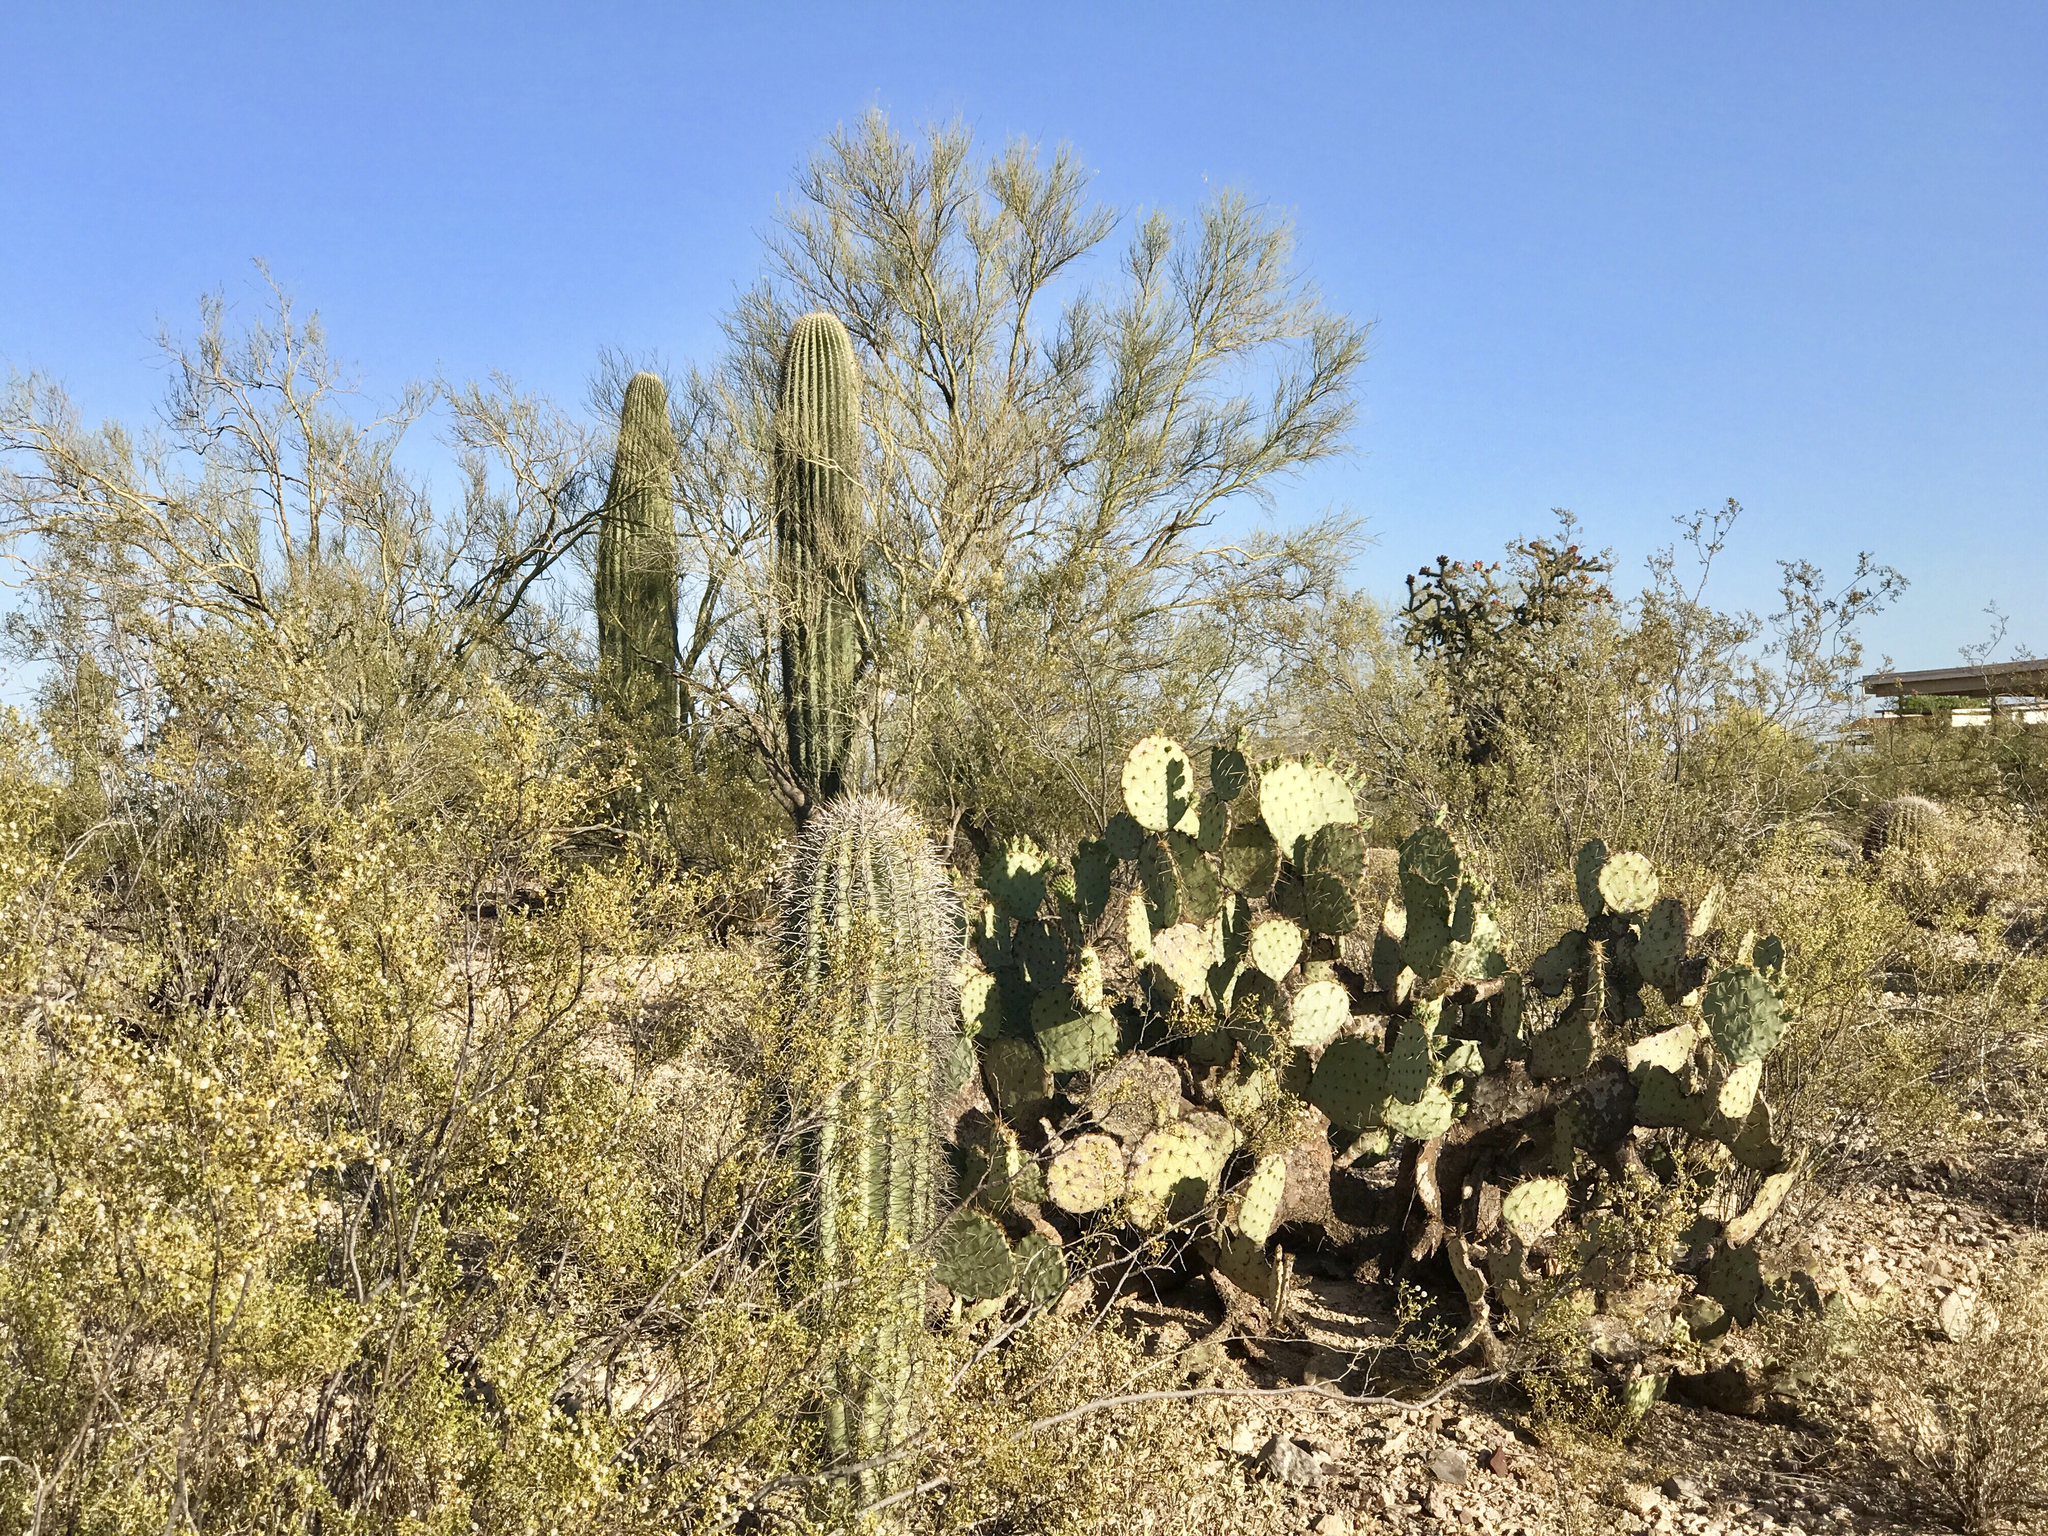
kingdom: Plantae
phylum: Tracheophyta
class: Magnoliopsida
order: Caryophyllales
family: Cactaceae
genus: Carnegiea
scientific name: Carnegiea gigantea
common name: Saguaro
